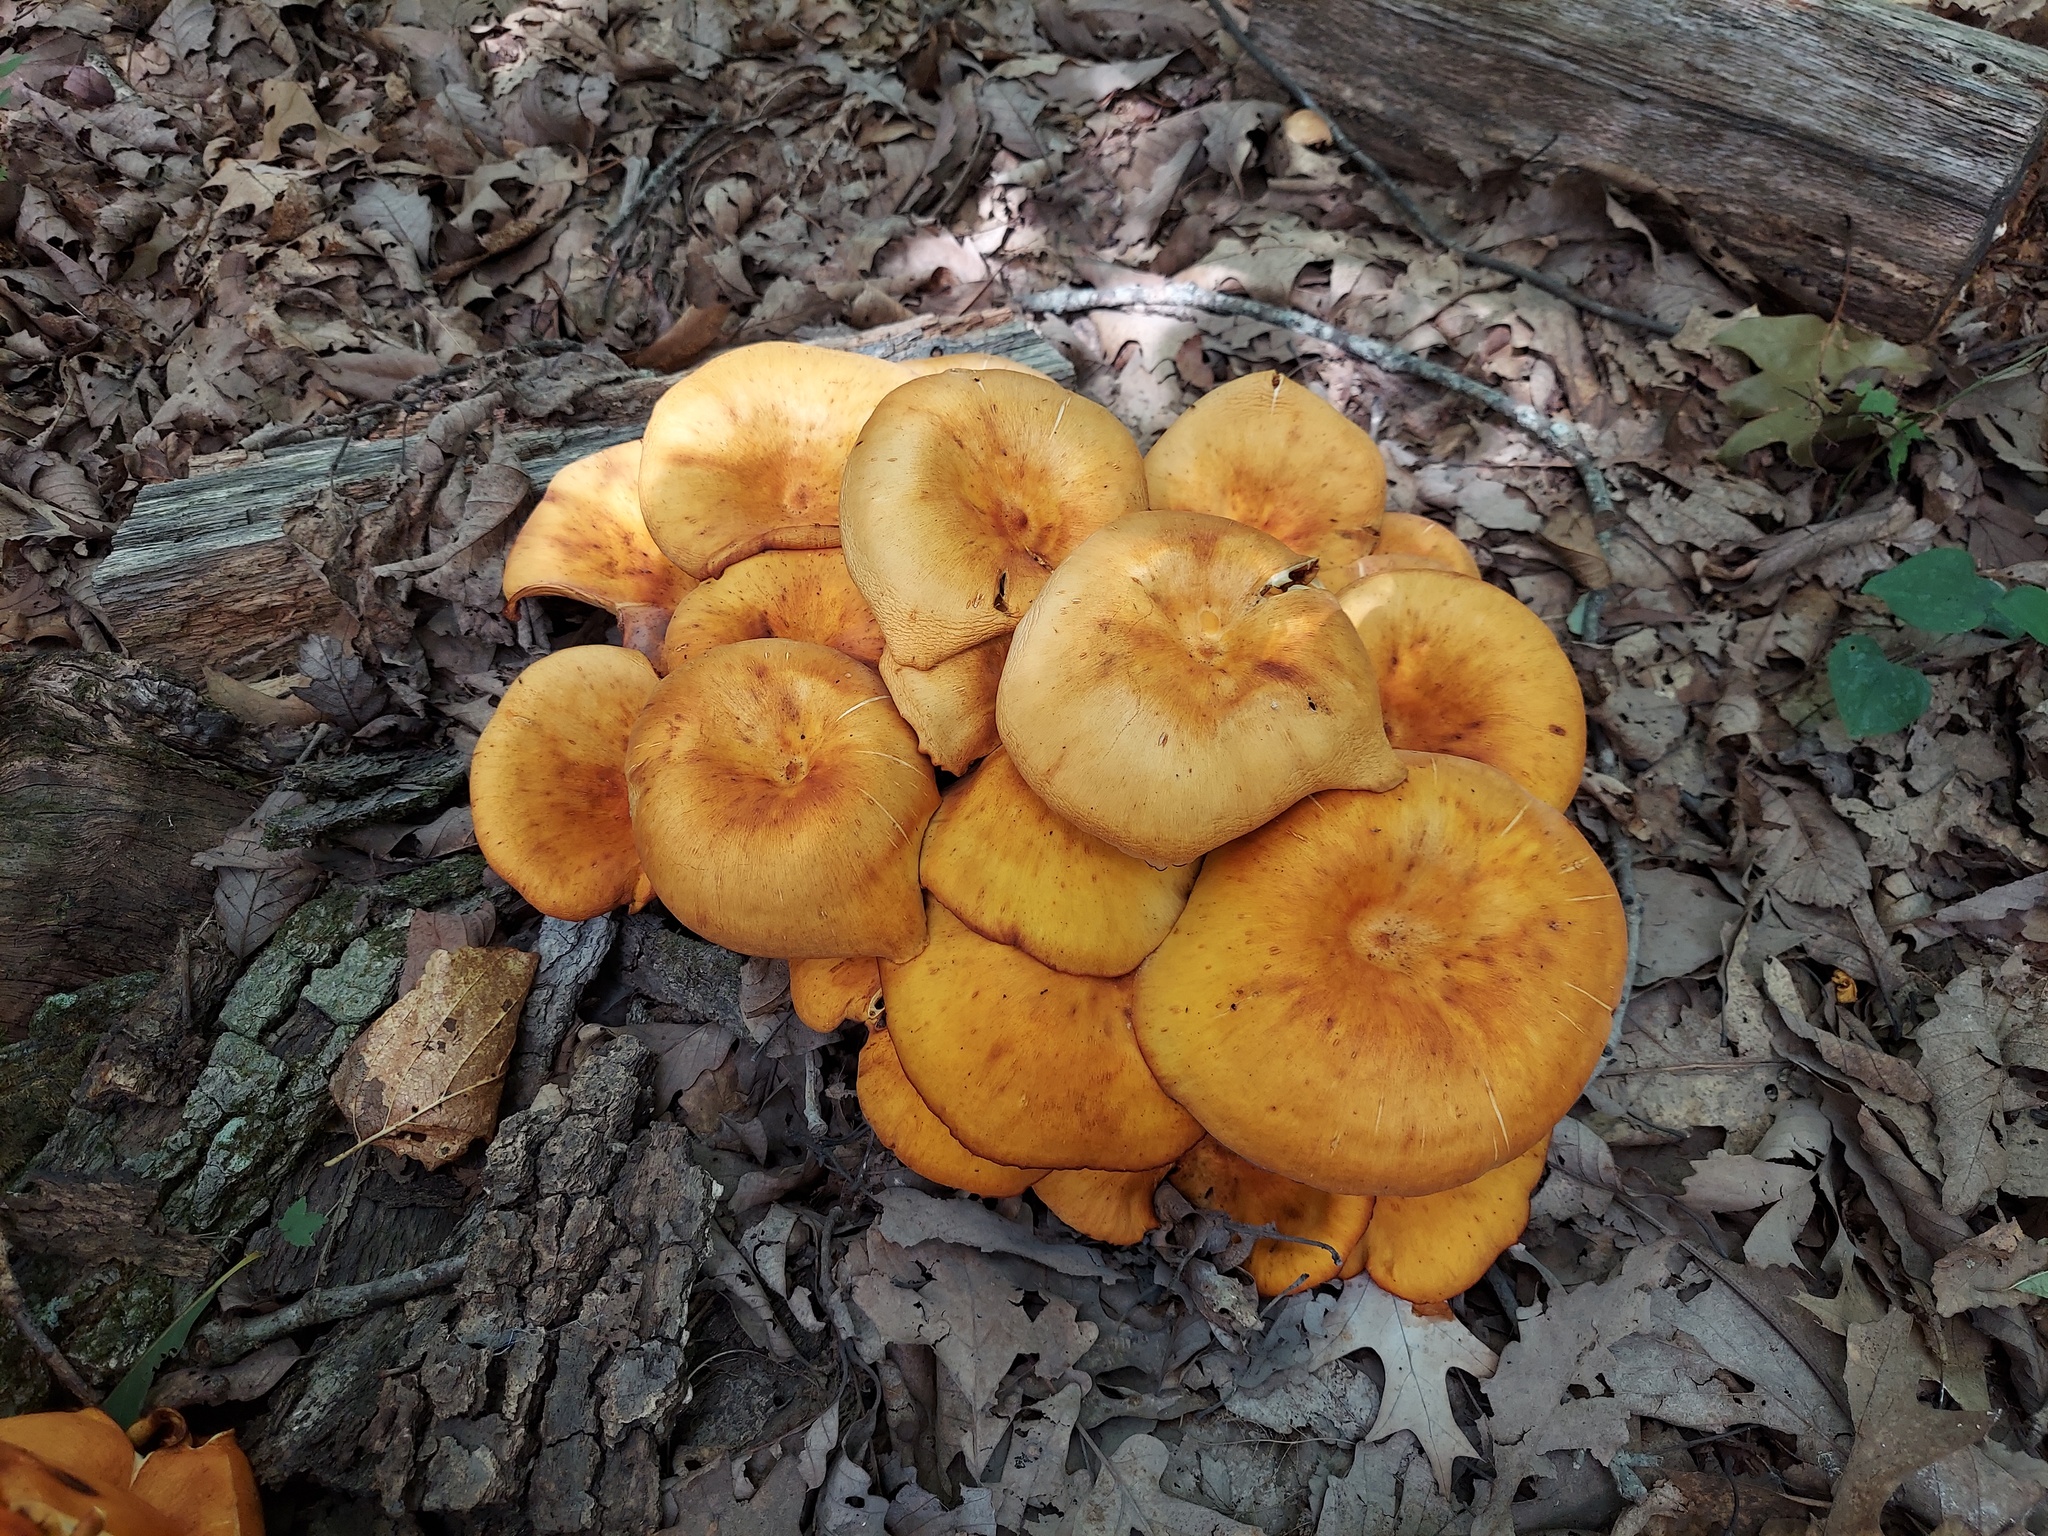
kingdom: Fungi
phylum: Basidiomycota
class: Agaricomycetes
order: Agaricales
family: Omphalotaceae
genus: Omphalotus
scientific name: Omphalotus illudens
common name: Jack o lantern
